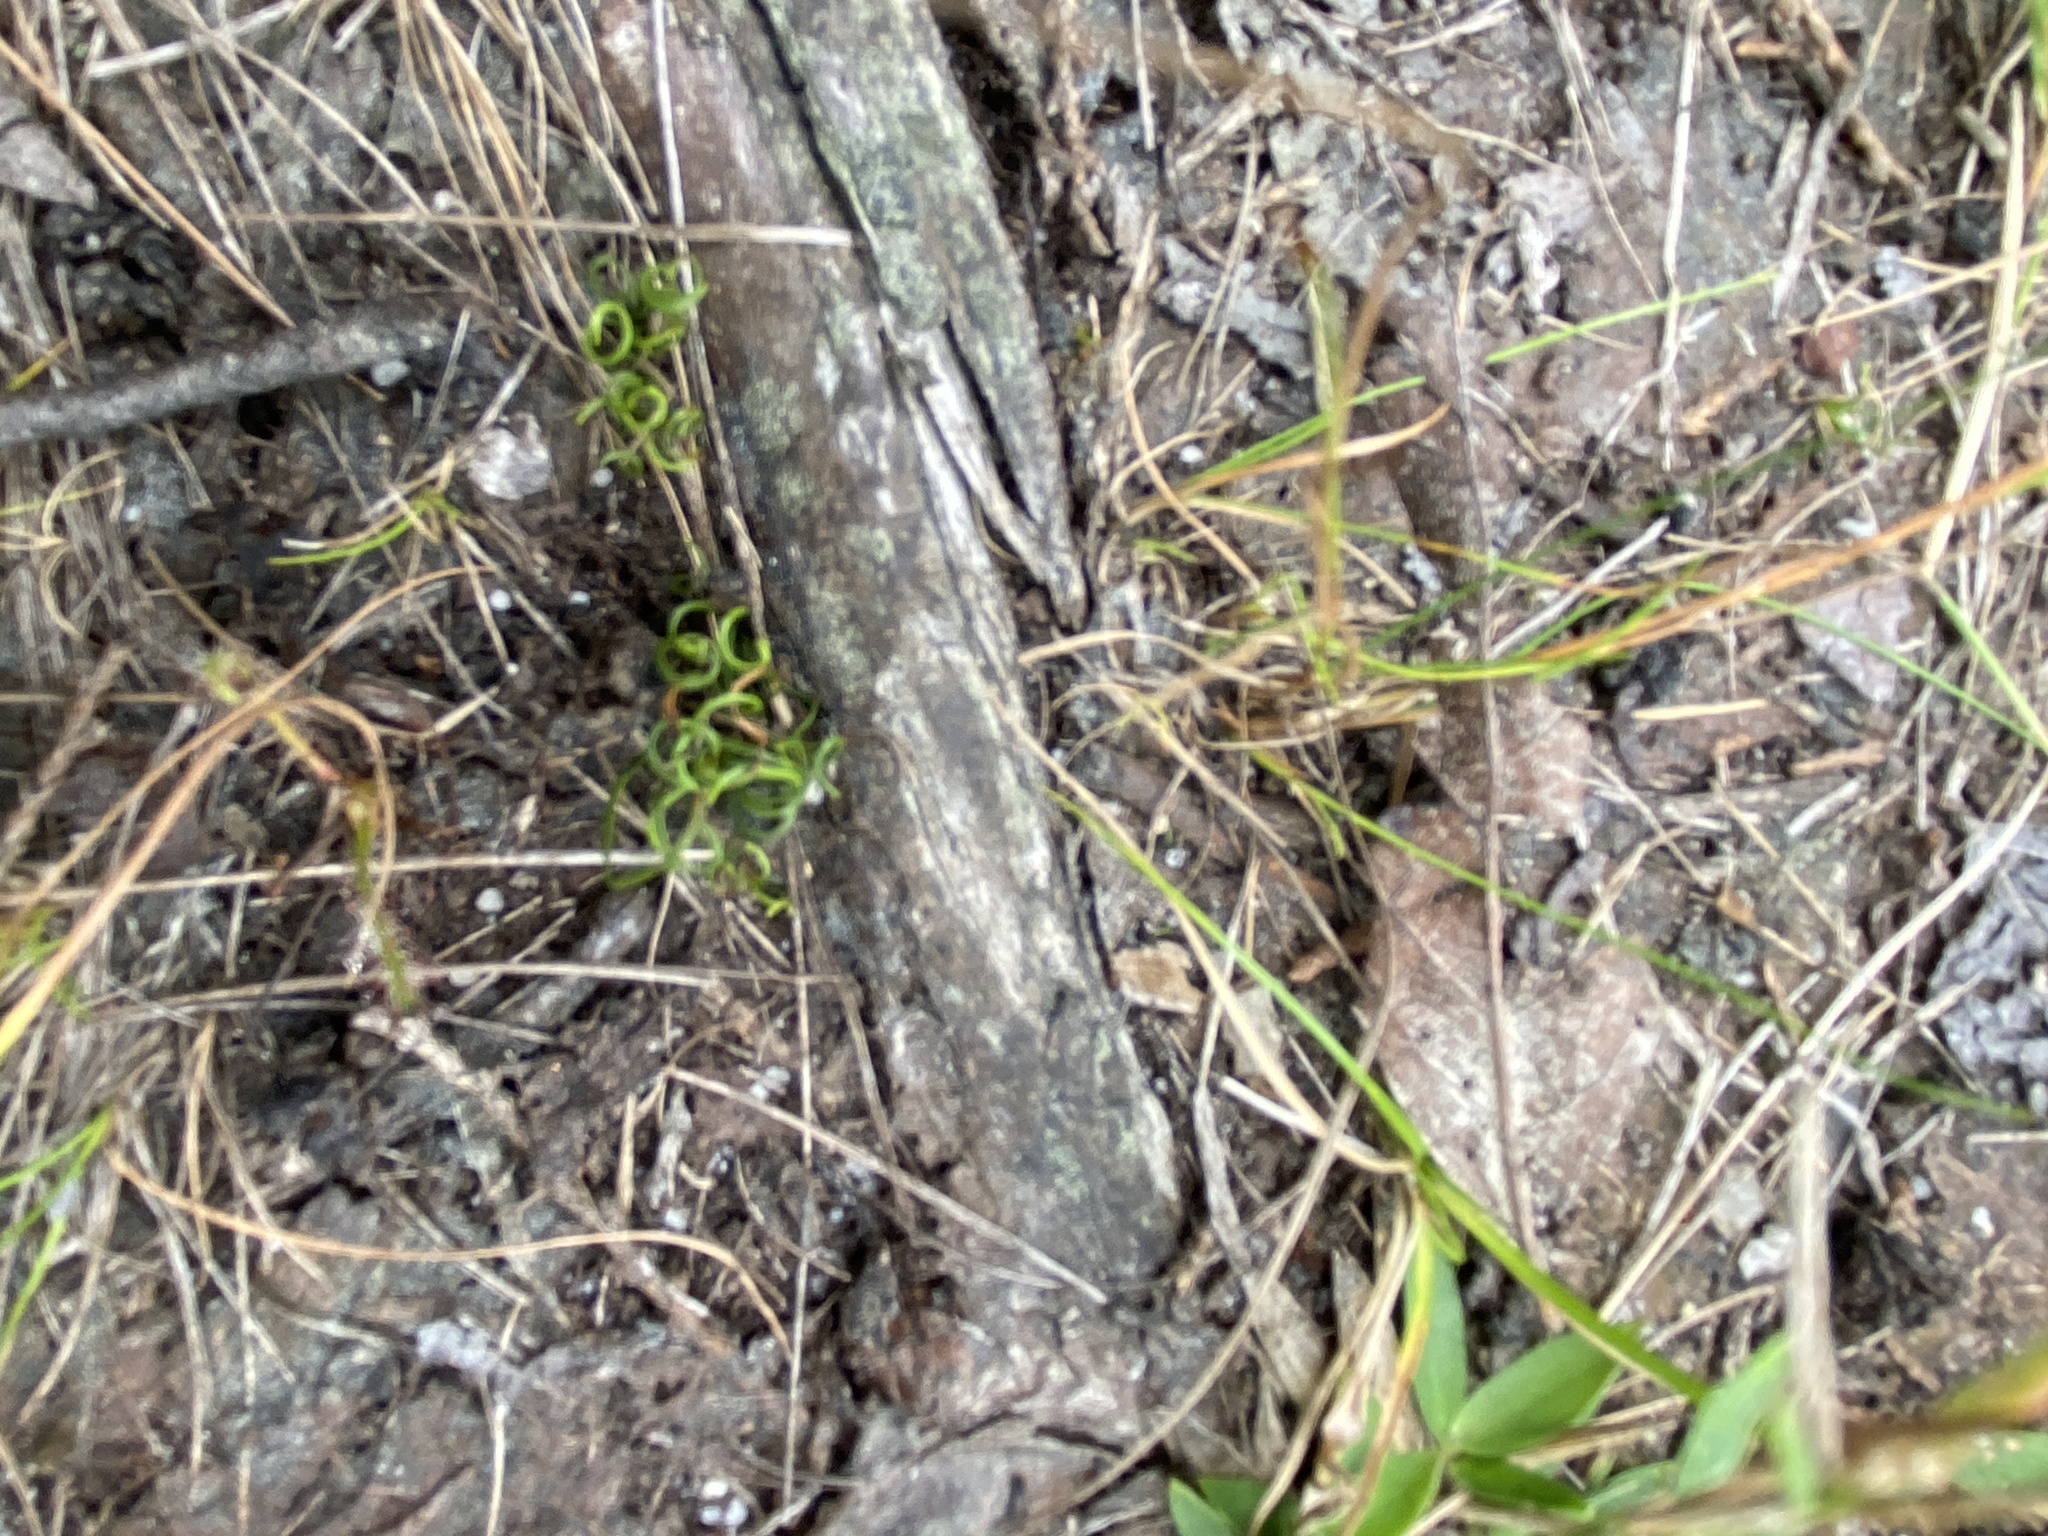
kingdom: Plantae
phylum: Tracheophyta
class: Polypodiopsida
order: Schizaeales
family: Schizaeaceae
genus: Schizaea
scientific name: Schizaea pusilla
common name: Curly-grass fern
